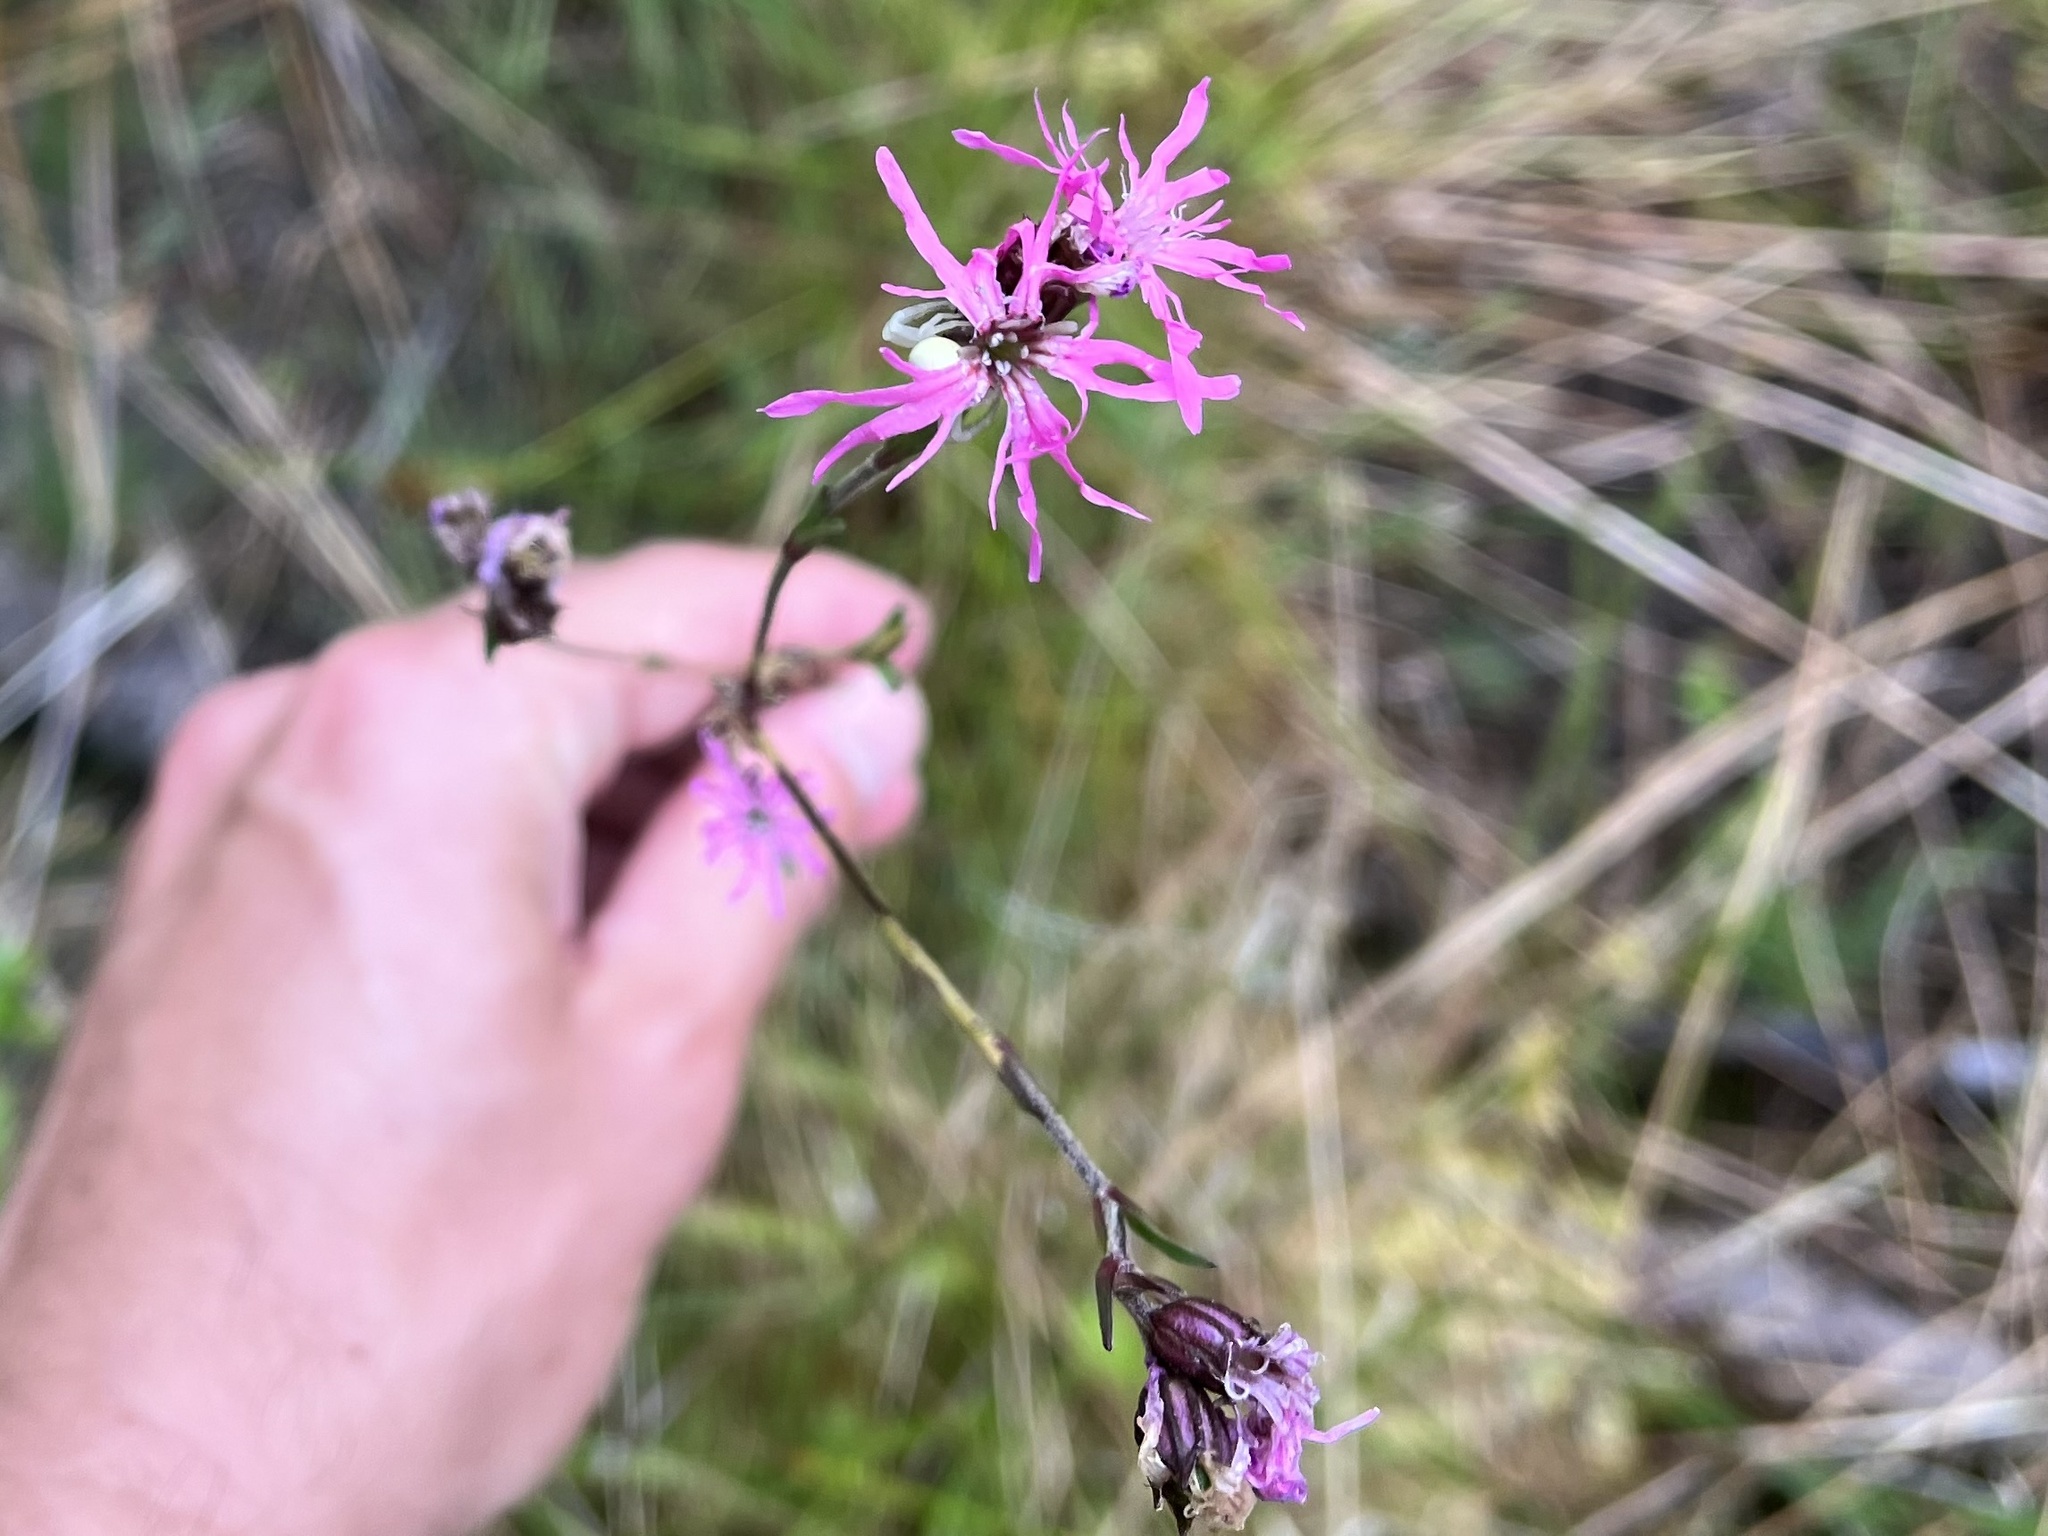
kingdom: Plantae
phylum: Tracheophyta
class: Magnoliopsida
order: Caryophyllales
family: Caryophyllaceae
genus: Silene
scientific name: Silene flos-cuculi
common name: Ragged-robin
